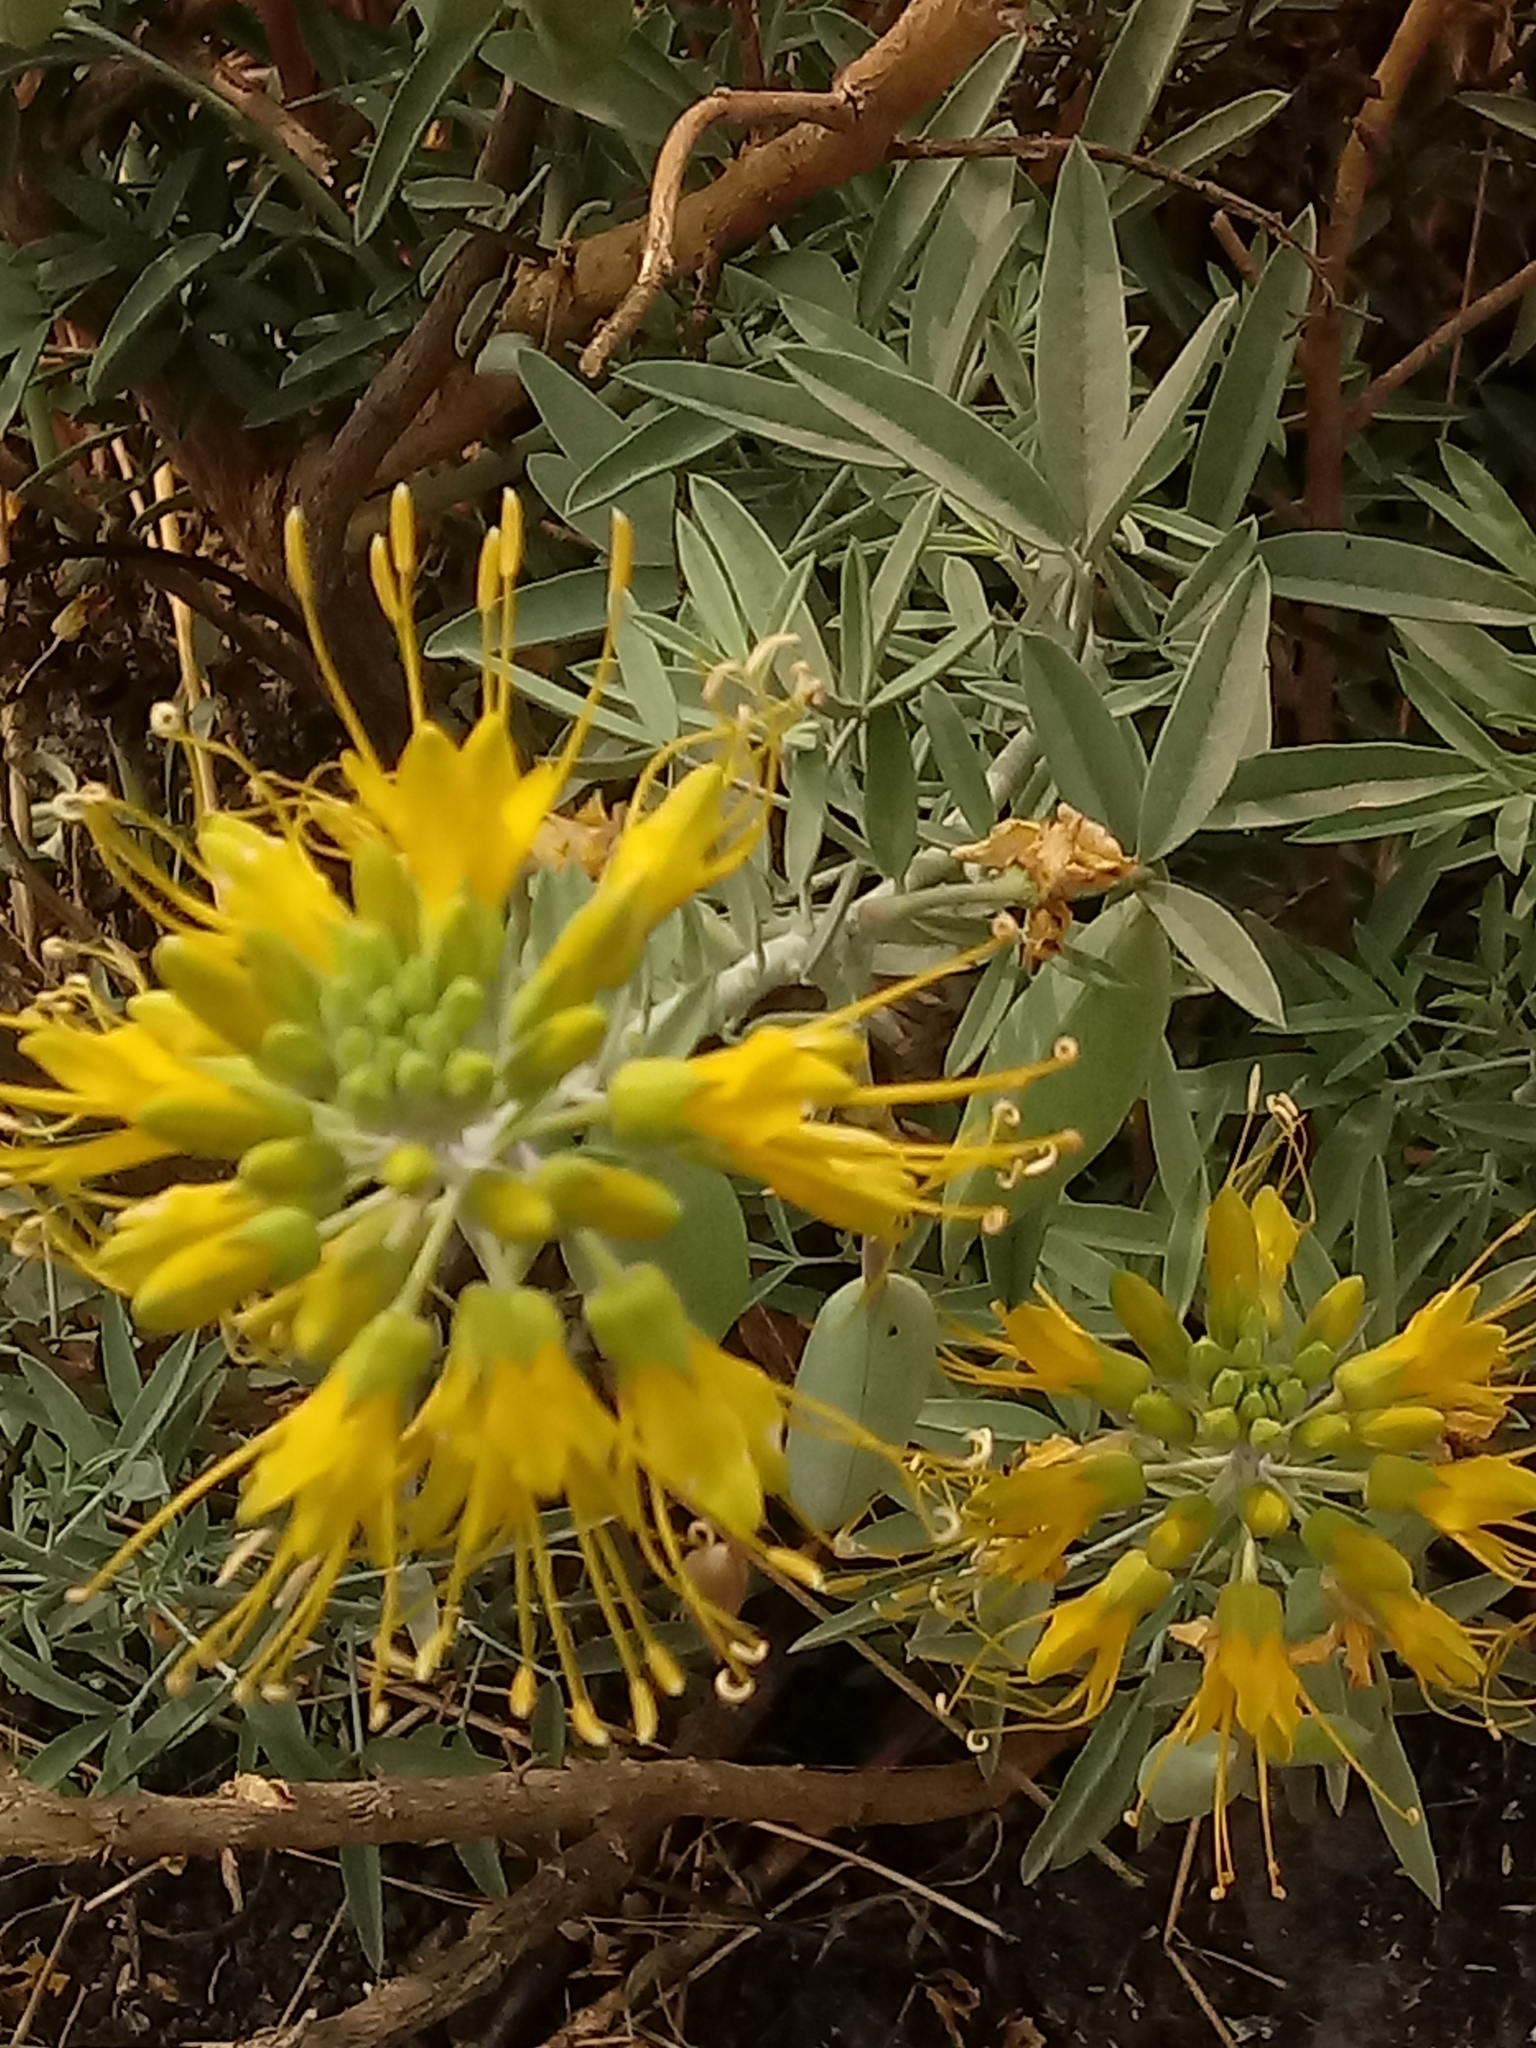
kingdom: Plantae
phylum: Tracheophyta
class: Magnoliopsida
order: Brassicales
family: Cleomaceae
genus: Cleomella
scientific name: Cleomella arborea
